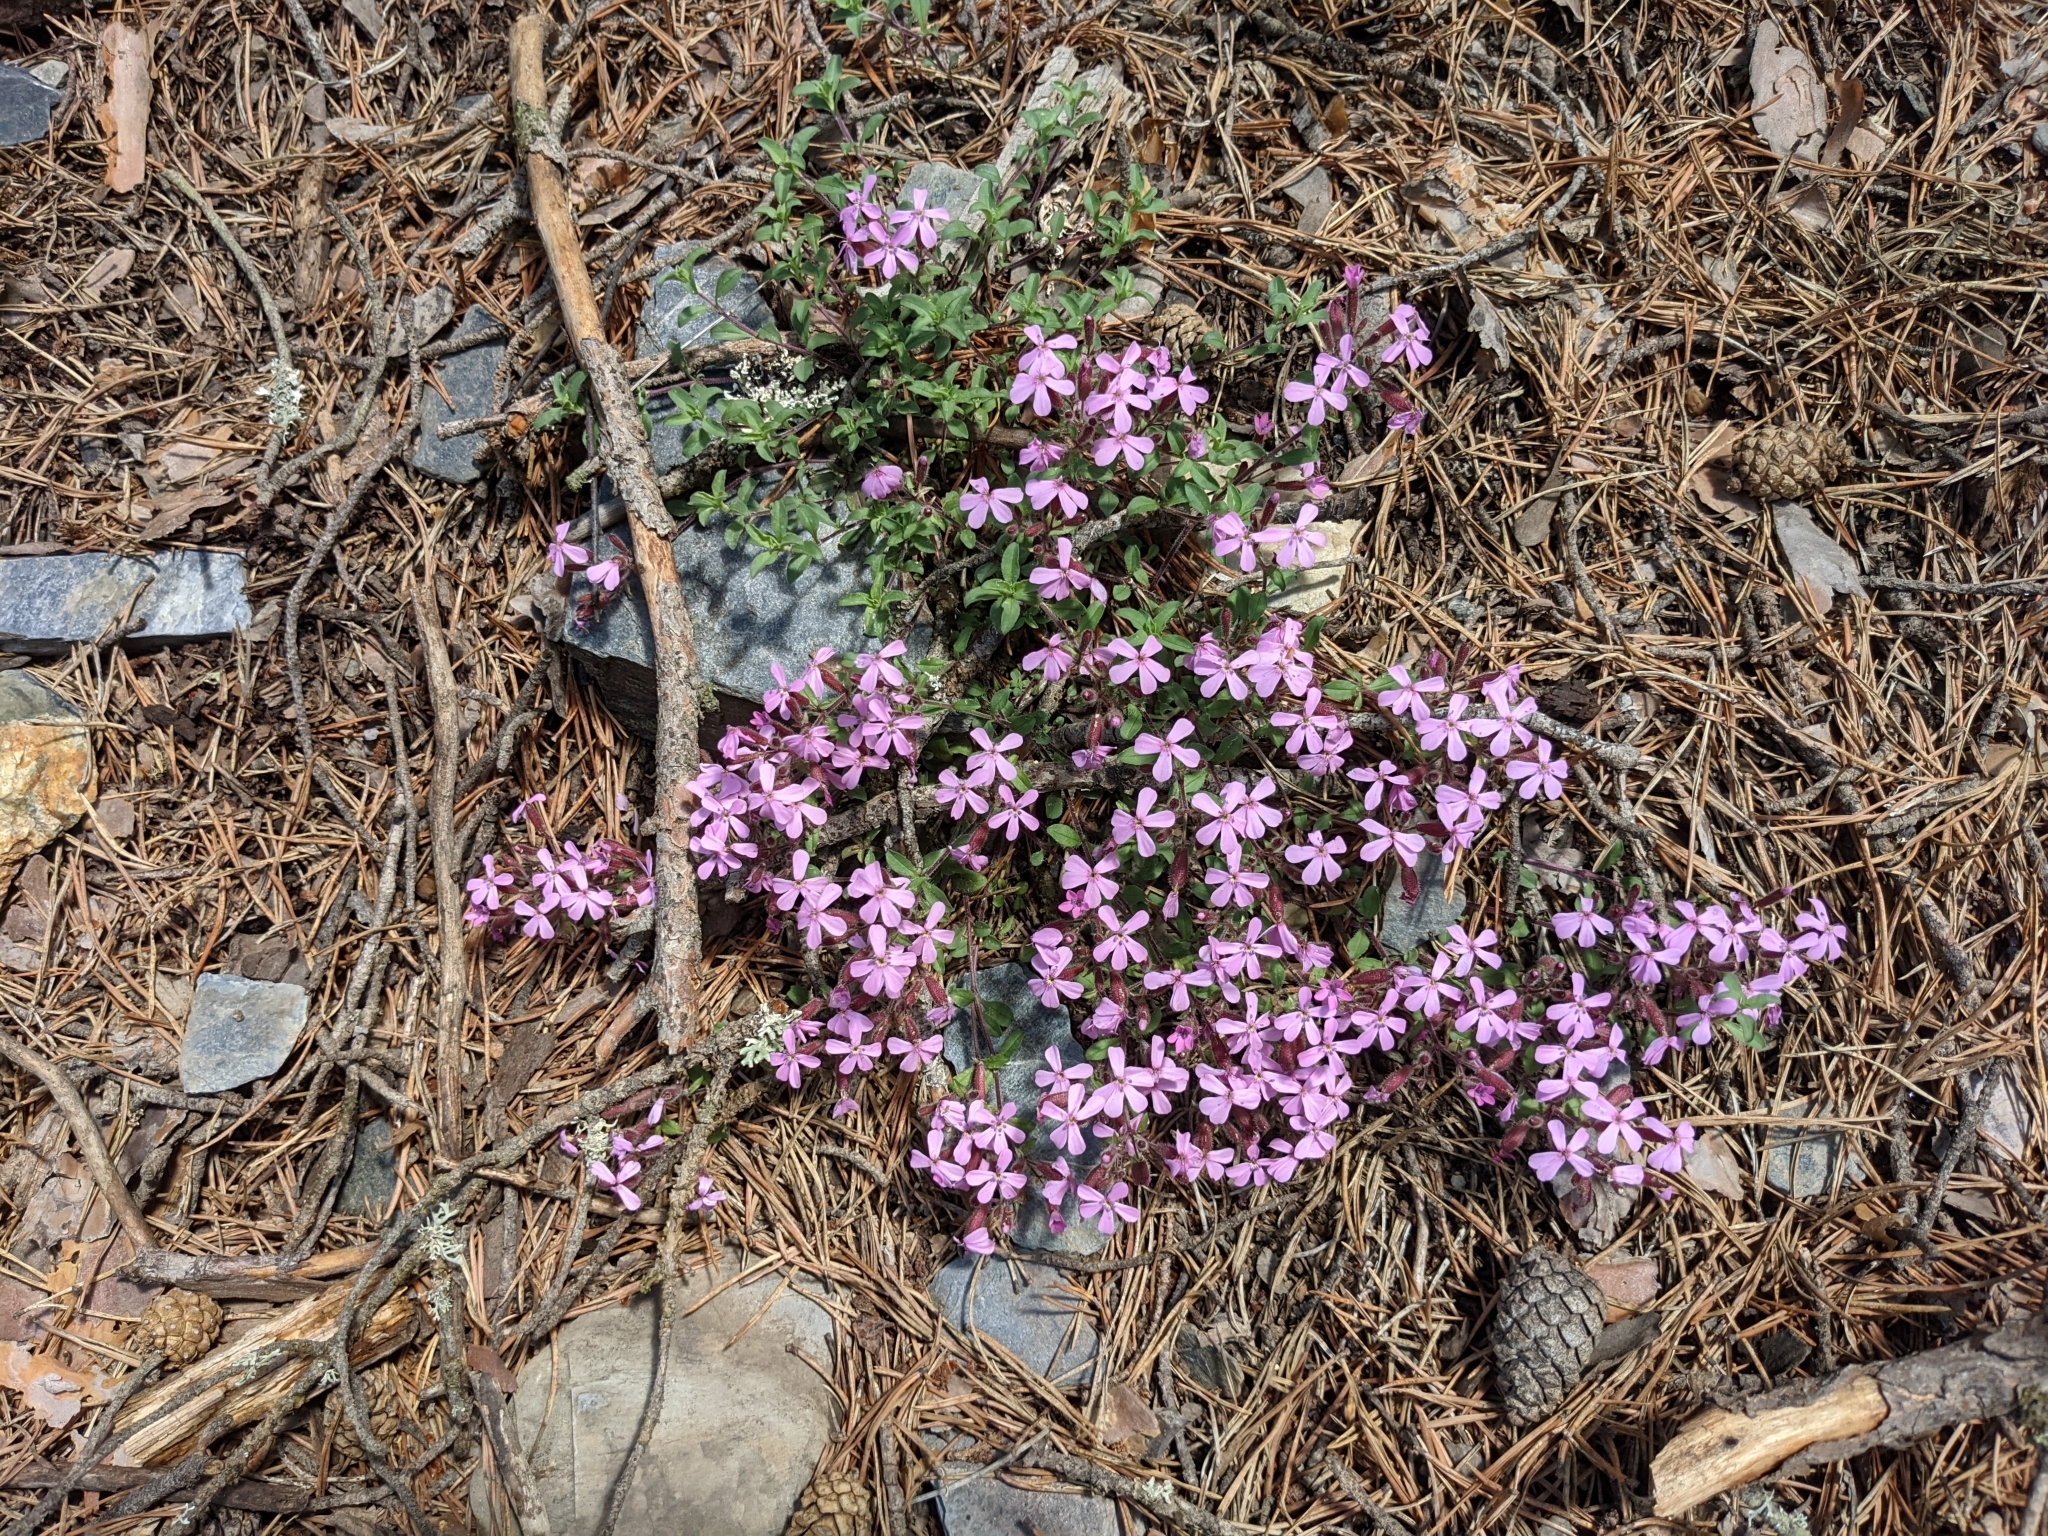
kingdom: Plantae
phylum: Tracheophyta
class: Magnoliopsida
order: Caryophyllales
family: Caryophyllaceae
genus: Saponaria
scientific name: Saponaria ocymoides
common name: Rock soapwort
